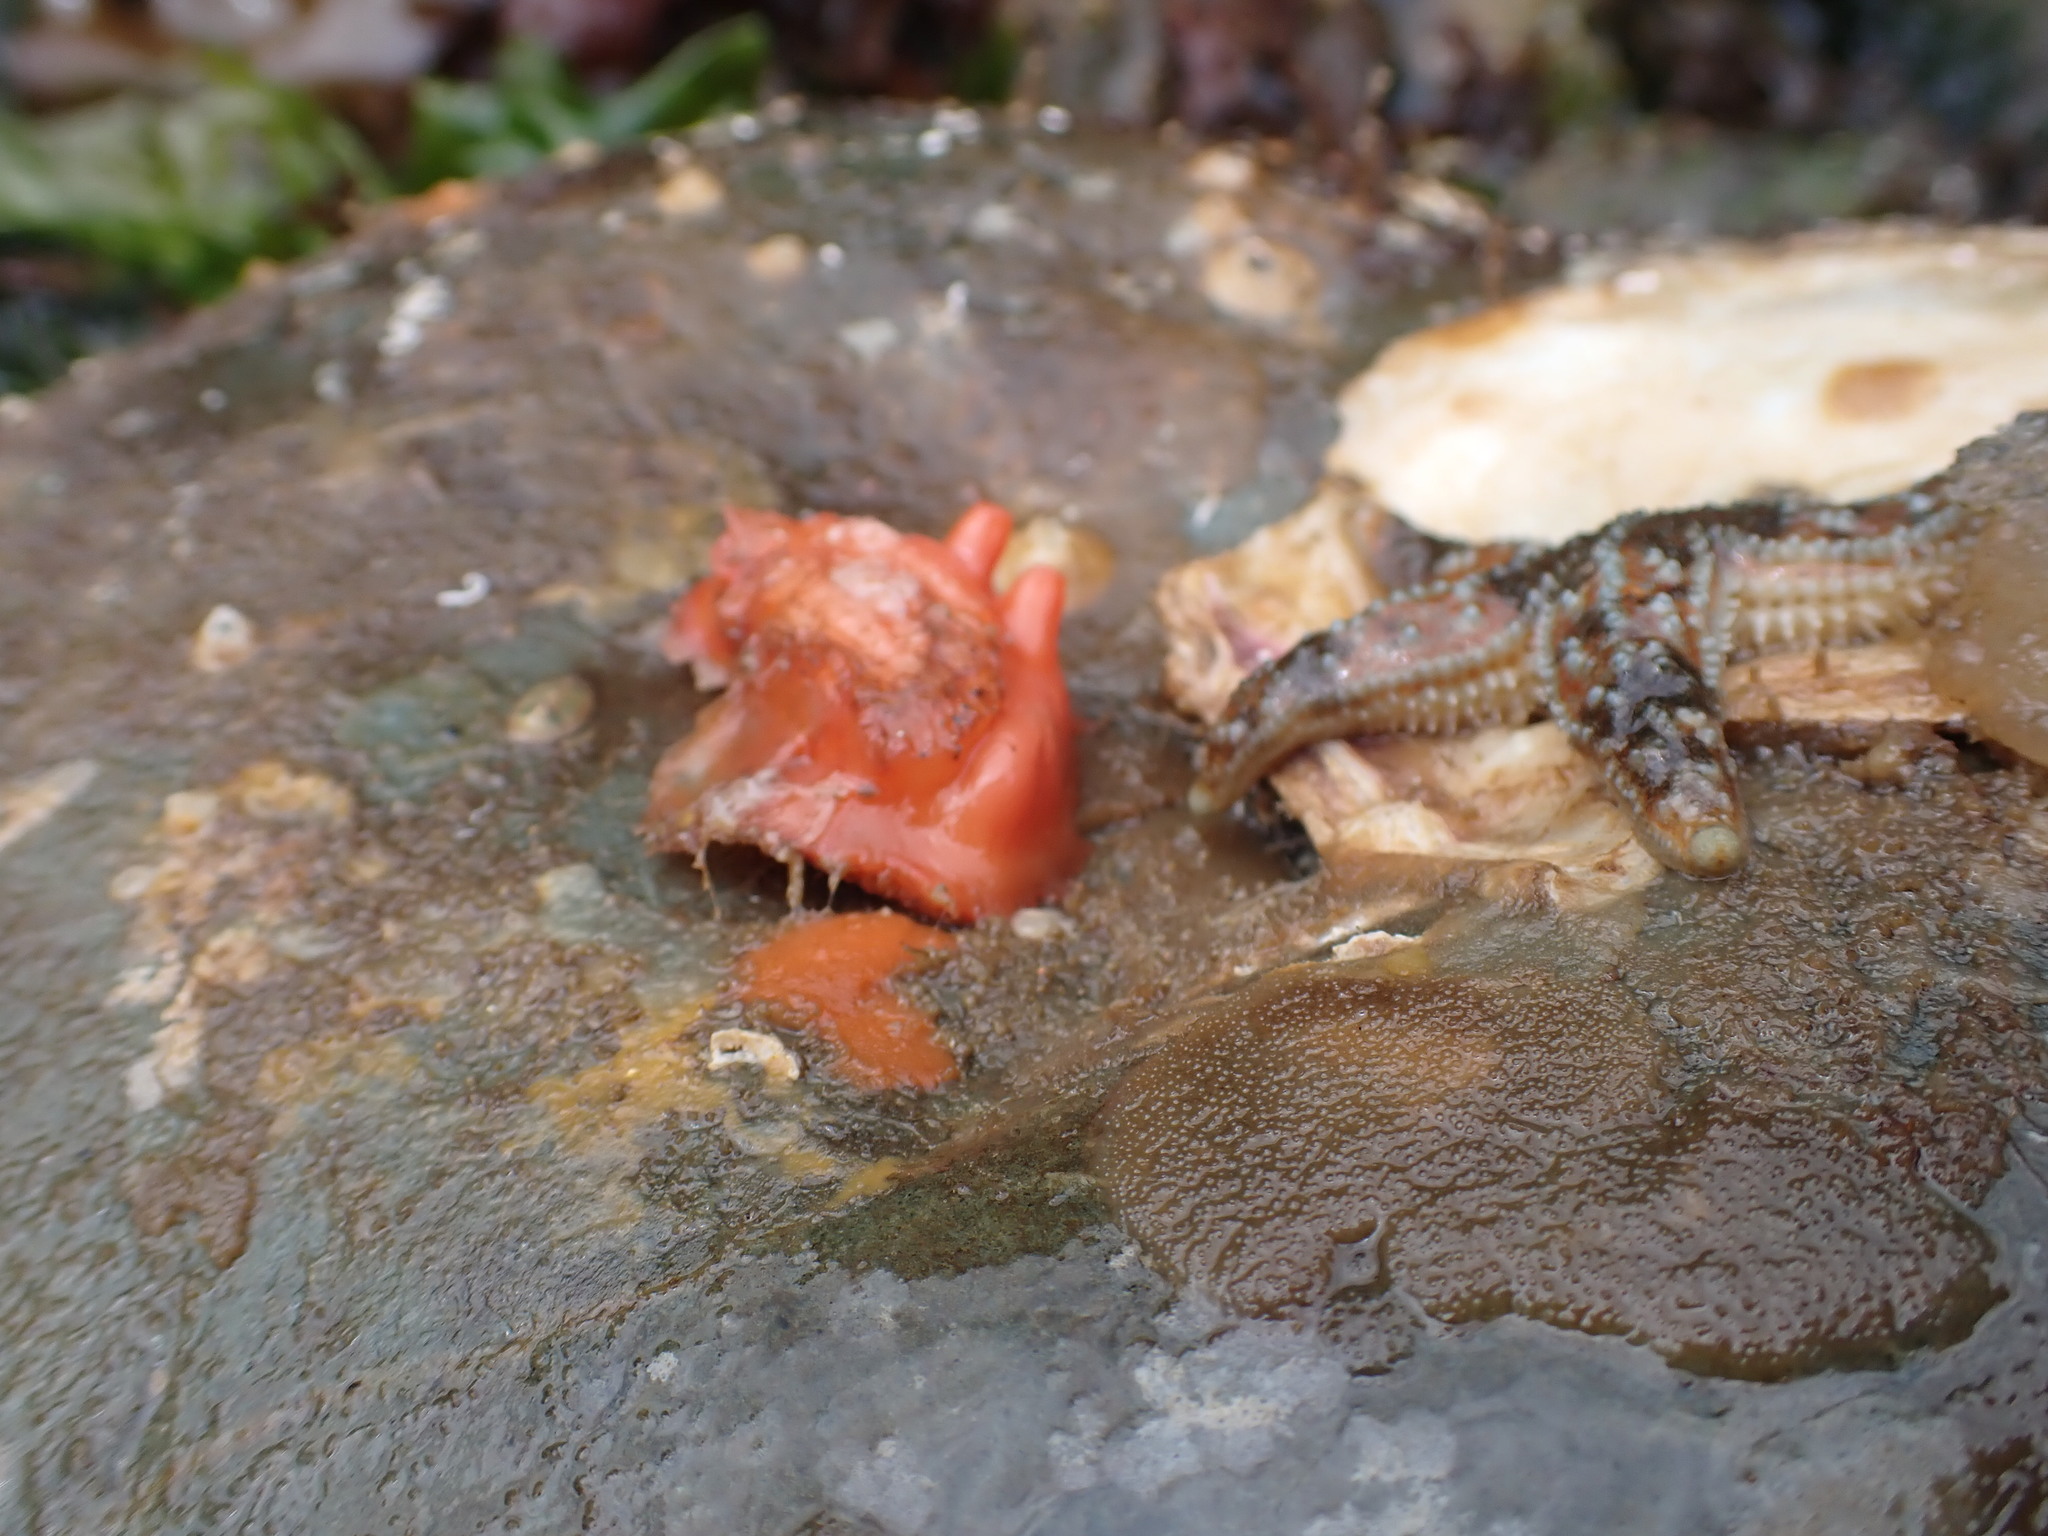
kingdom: Animalia
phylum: Chordata
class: Ascidiacea
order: Stolidobranchia
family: Styelidae
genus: Cnemidocarpa
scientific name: Cnemidocarpa finmarkiensis
